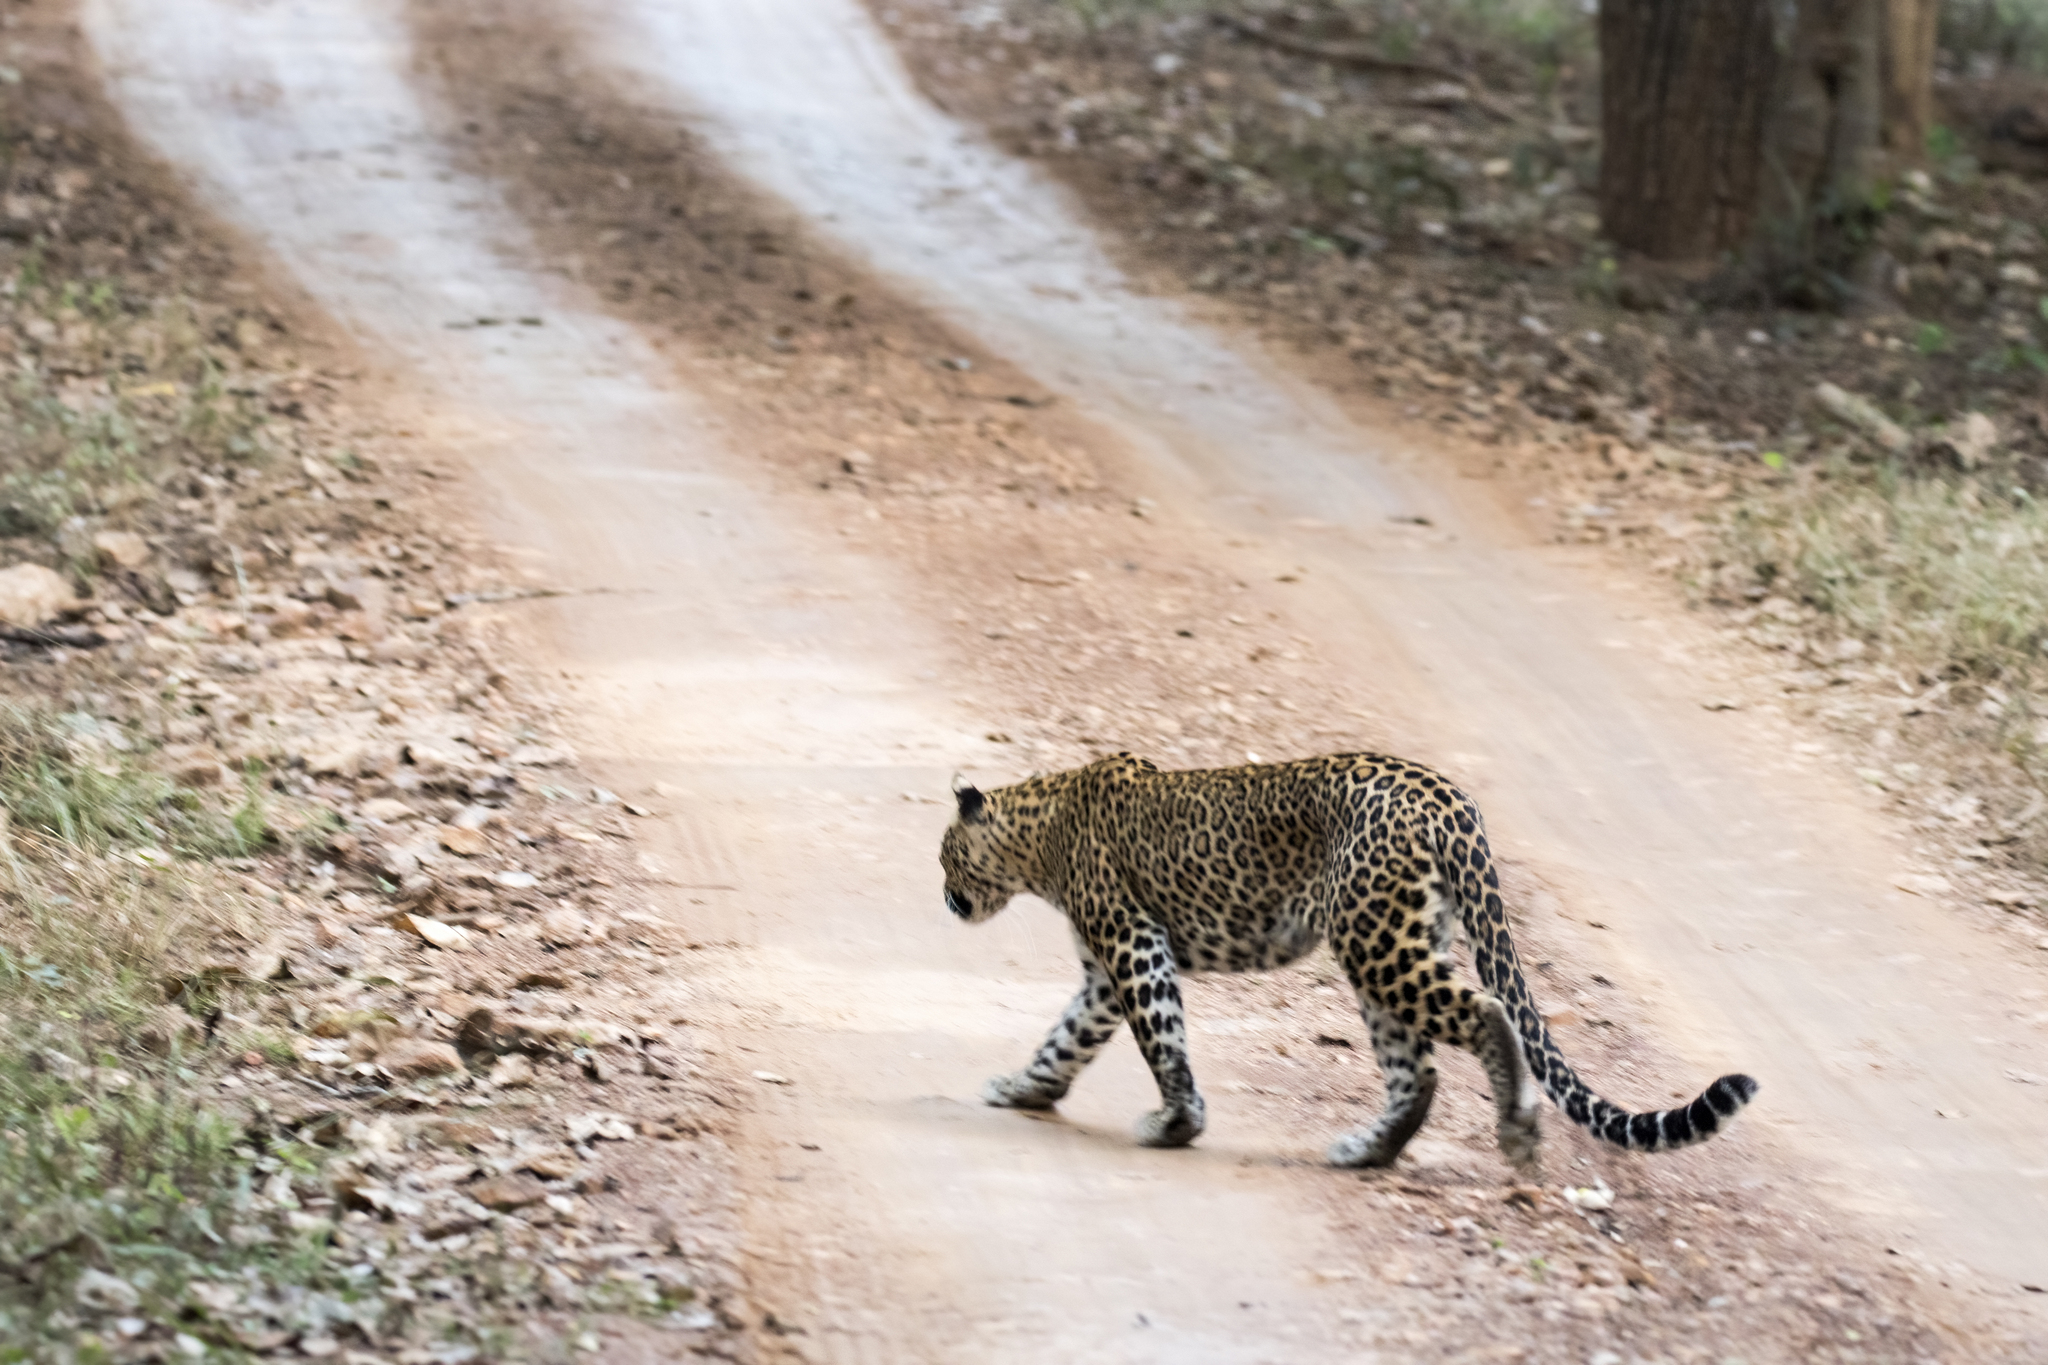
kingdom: Animalia
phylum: Chordata
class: Mammalia
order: Carnivora
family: Felidae
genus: Panthera
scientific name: Panthera pardus
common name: Leopard
